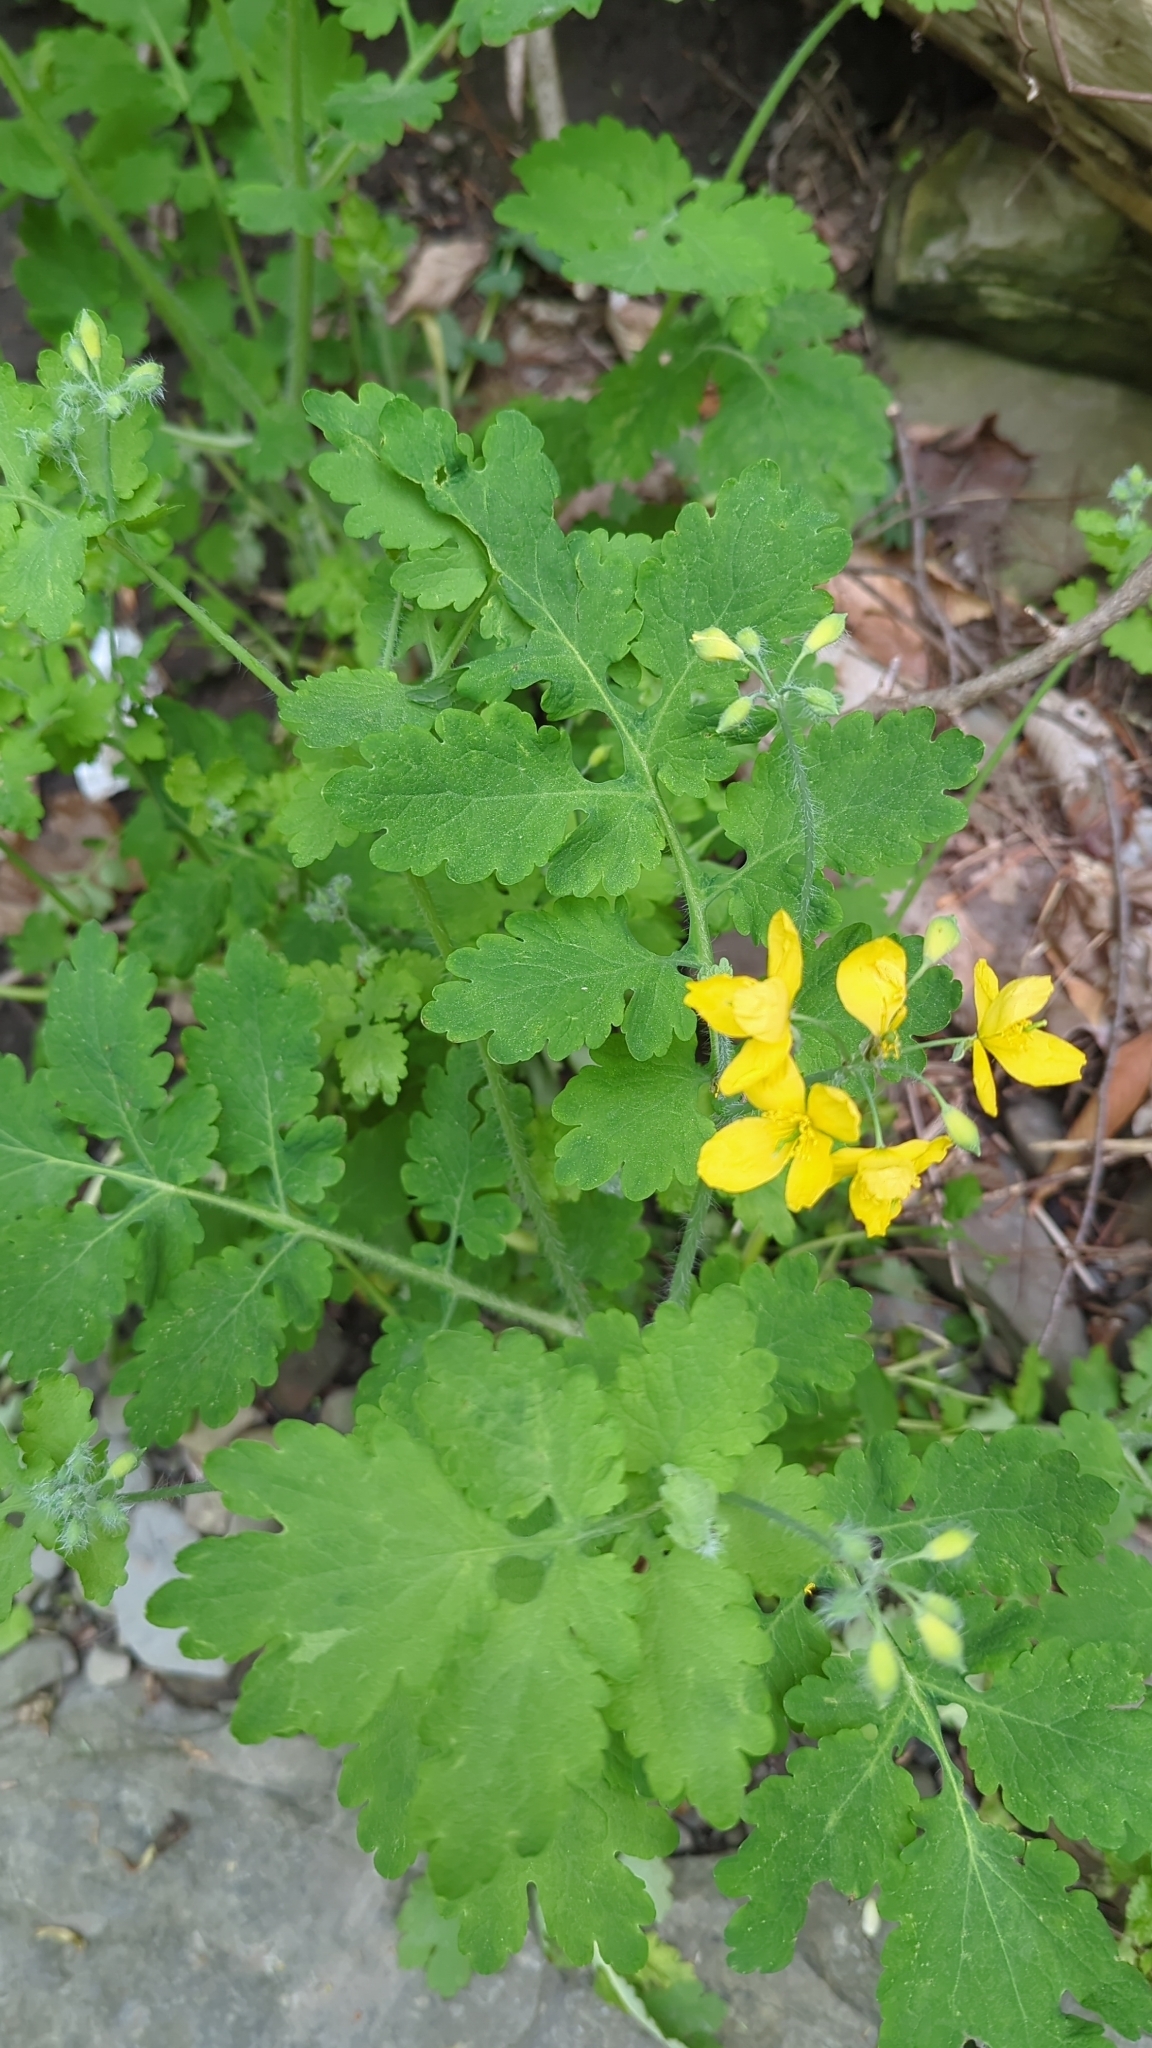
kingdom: Plantae
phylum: Tracheophyta
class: Magnoliopsida
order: Ranunculales
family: Papaveraceae
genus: Chelidonium
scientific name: Chelidonium majus
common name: Greater celandine
